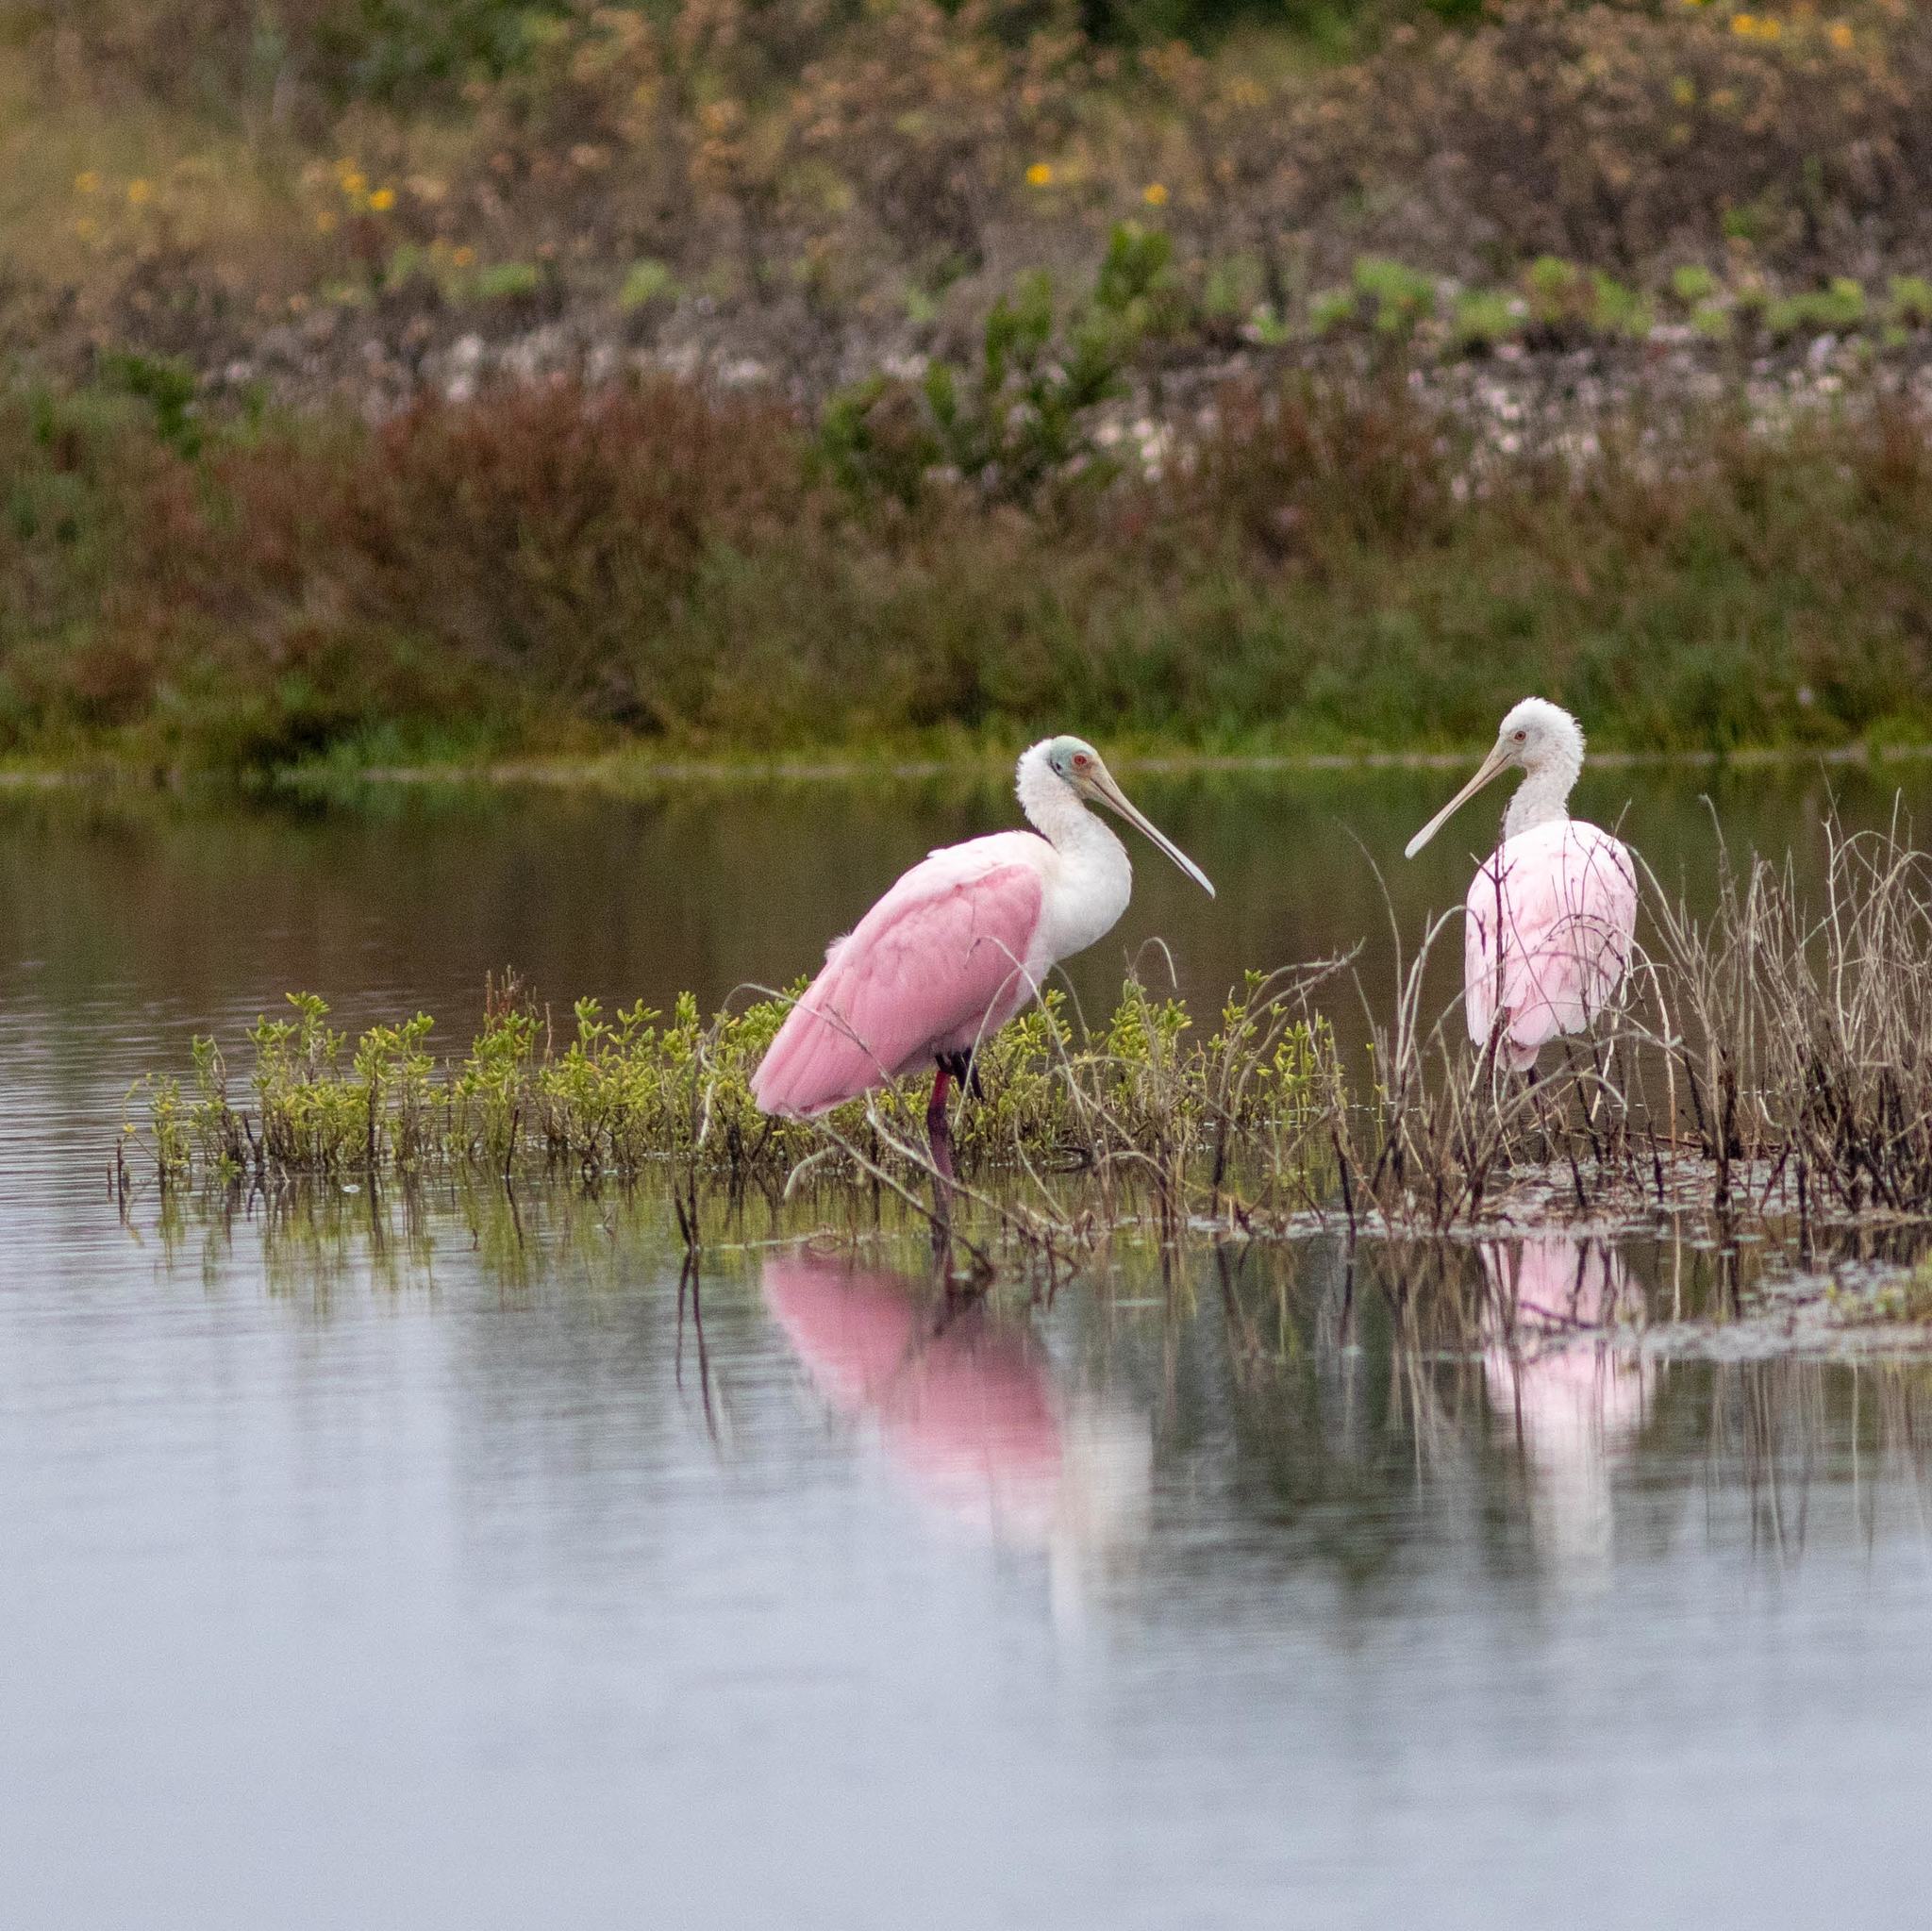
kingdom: Animalia
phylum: Chordata
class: Aves
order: Pelecaniformes
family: Threskiornithidae
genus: Platalea
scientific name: Platalea ajaja
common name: Roseate spoonbill
